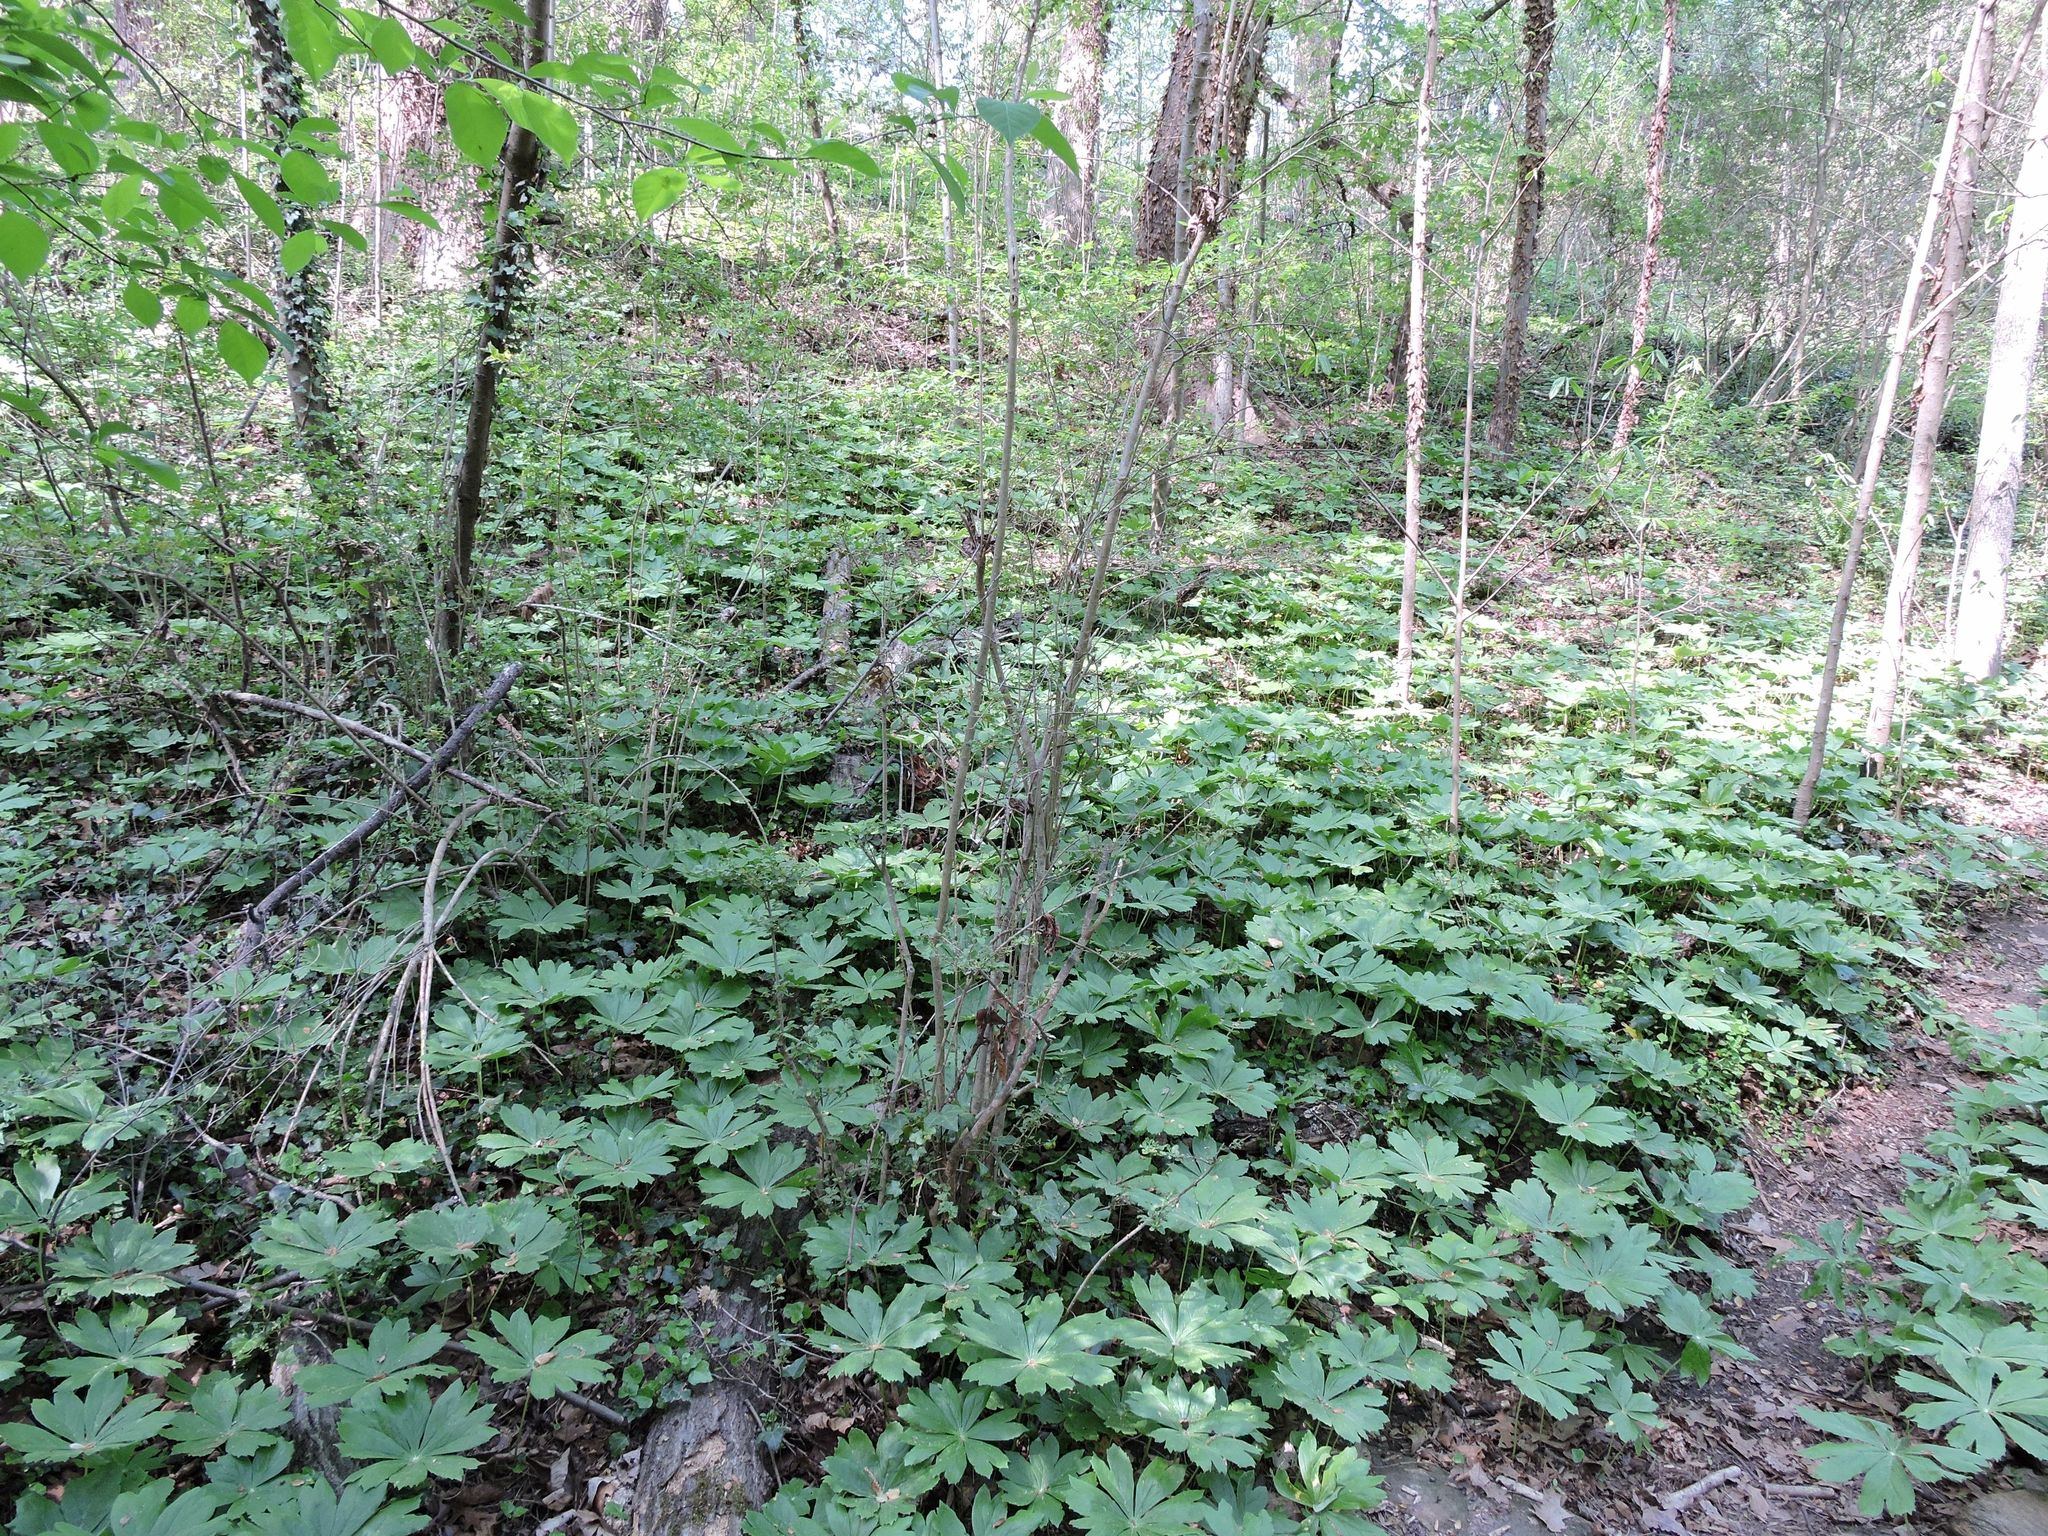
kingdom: Plantae
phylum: Tracheophyta
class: Magnoliopsida
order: Ranunculales
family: Berberidaceae
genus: Podophyllum
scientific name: Podophyllum peltatum
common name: Wild mandrake
